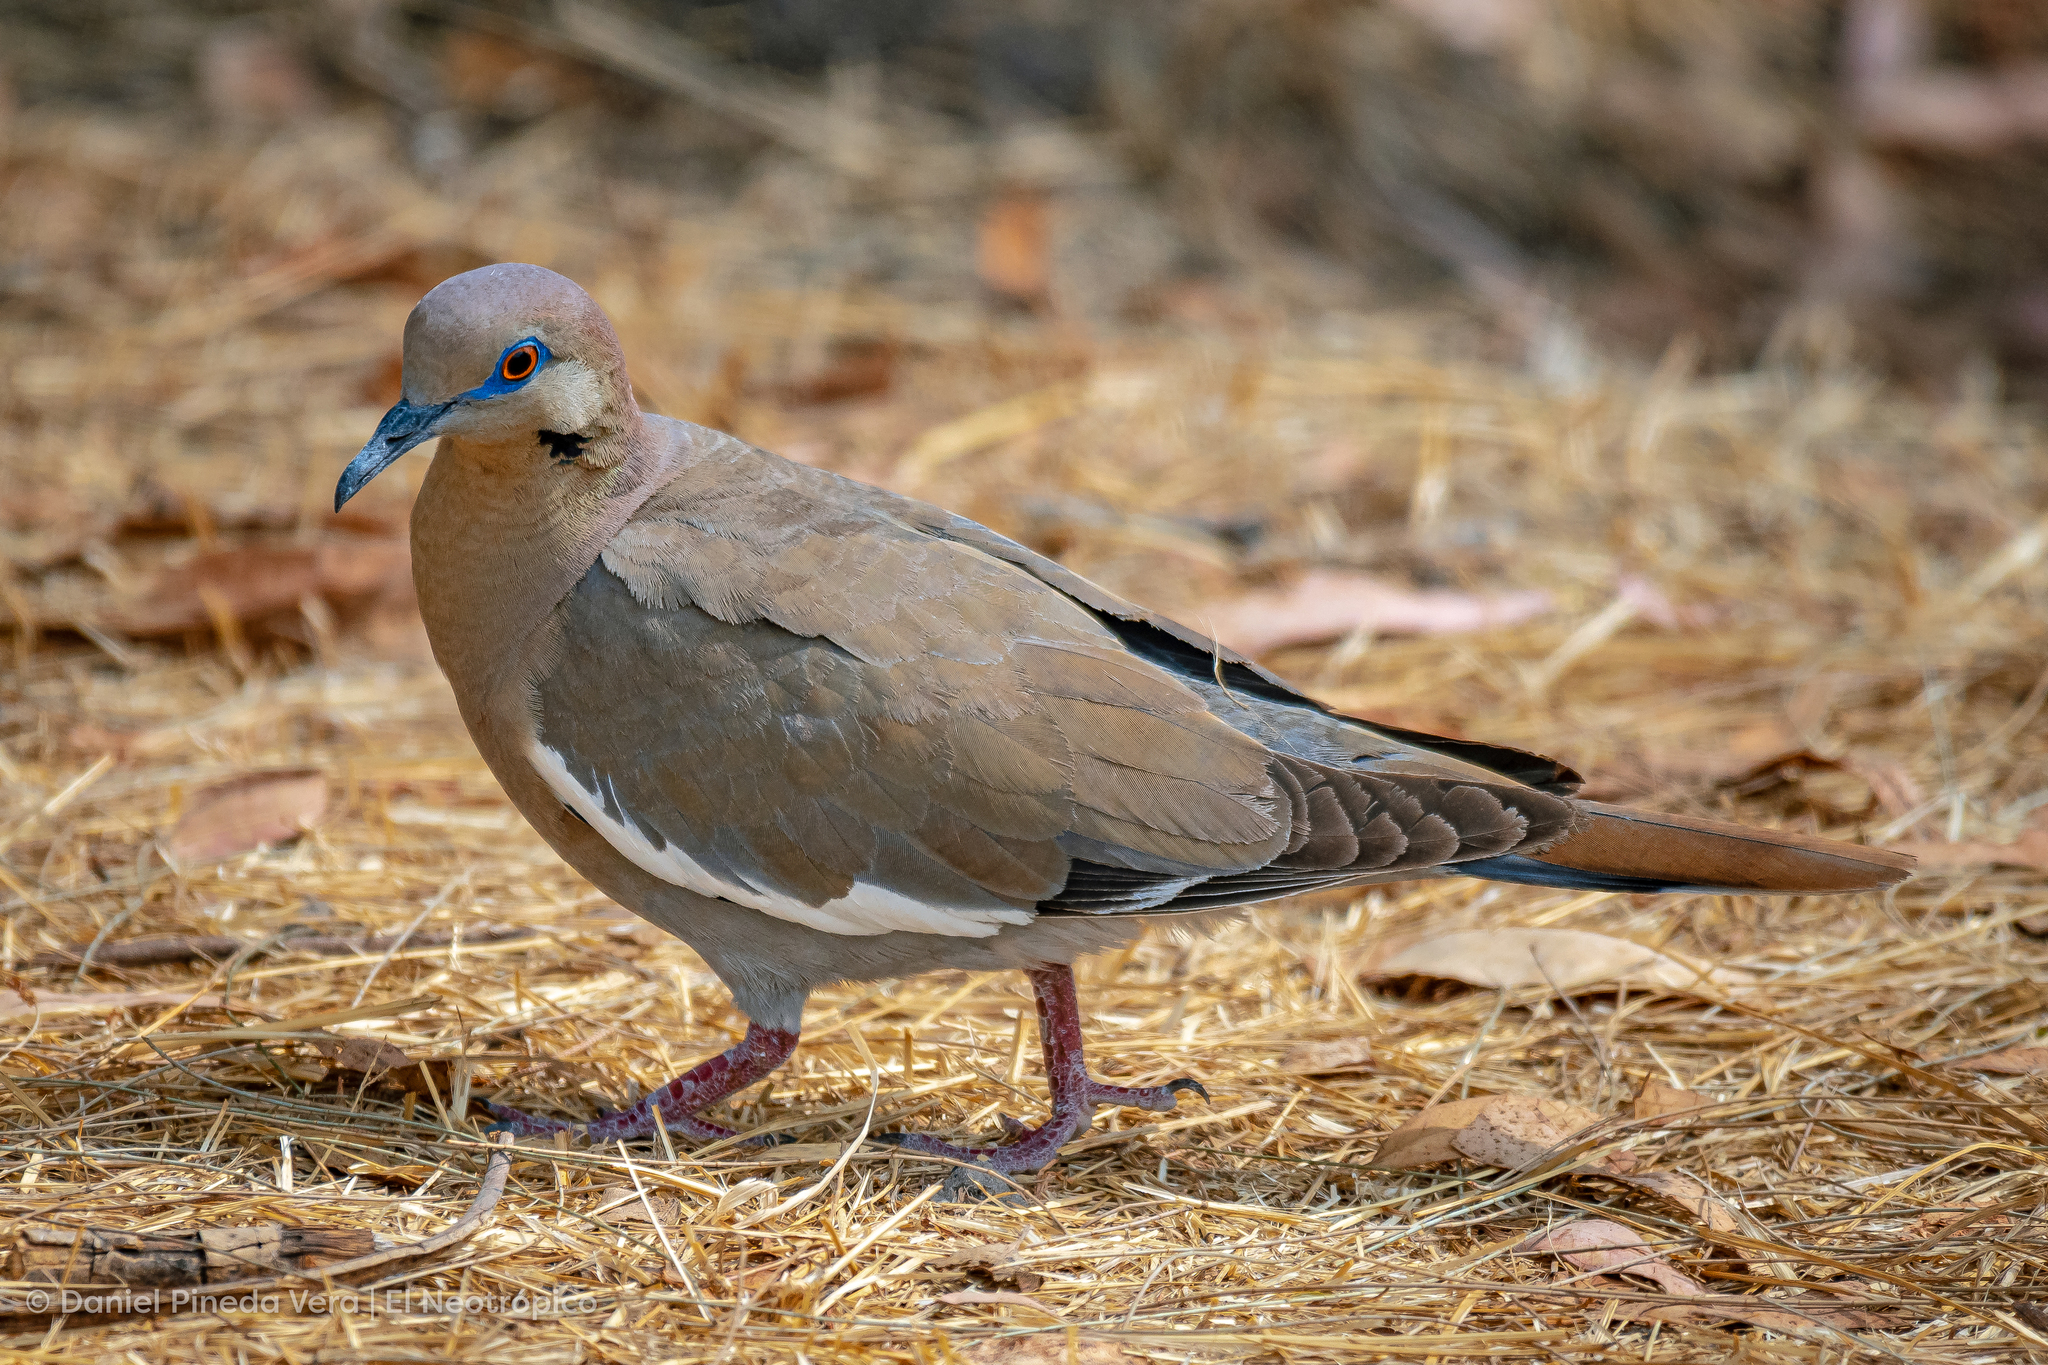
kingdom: Animalia
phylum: Chordata
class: Aves
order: Columbiformes
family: Columbidae
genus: Zenaida
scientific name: Zenaida asiatica
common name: White-winged dove
